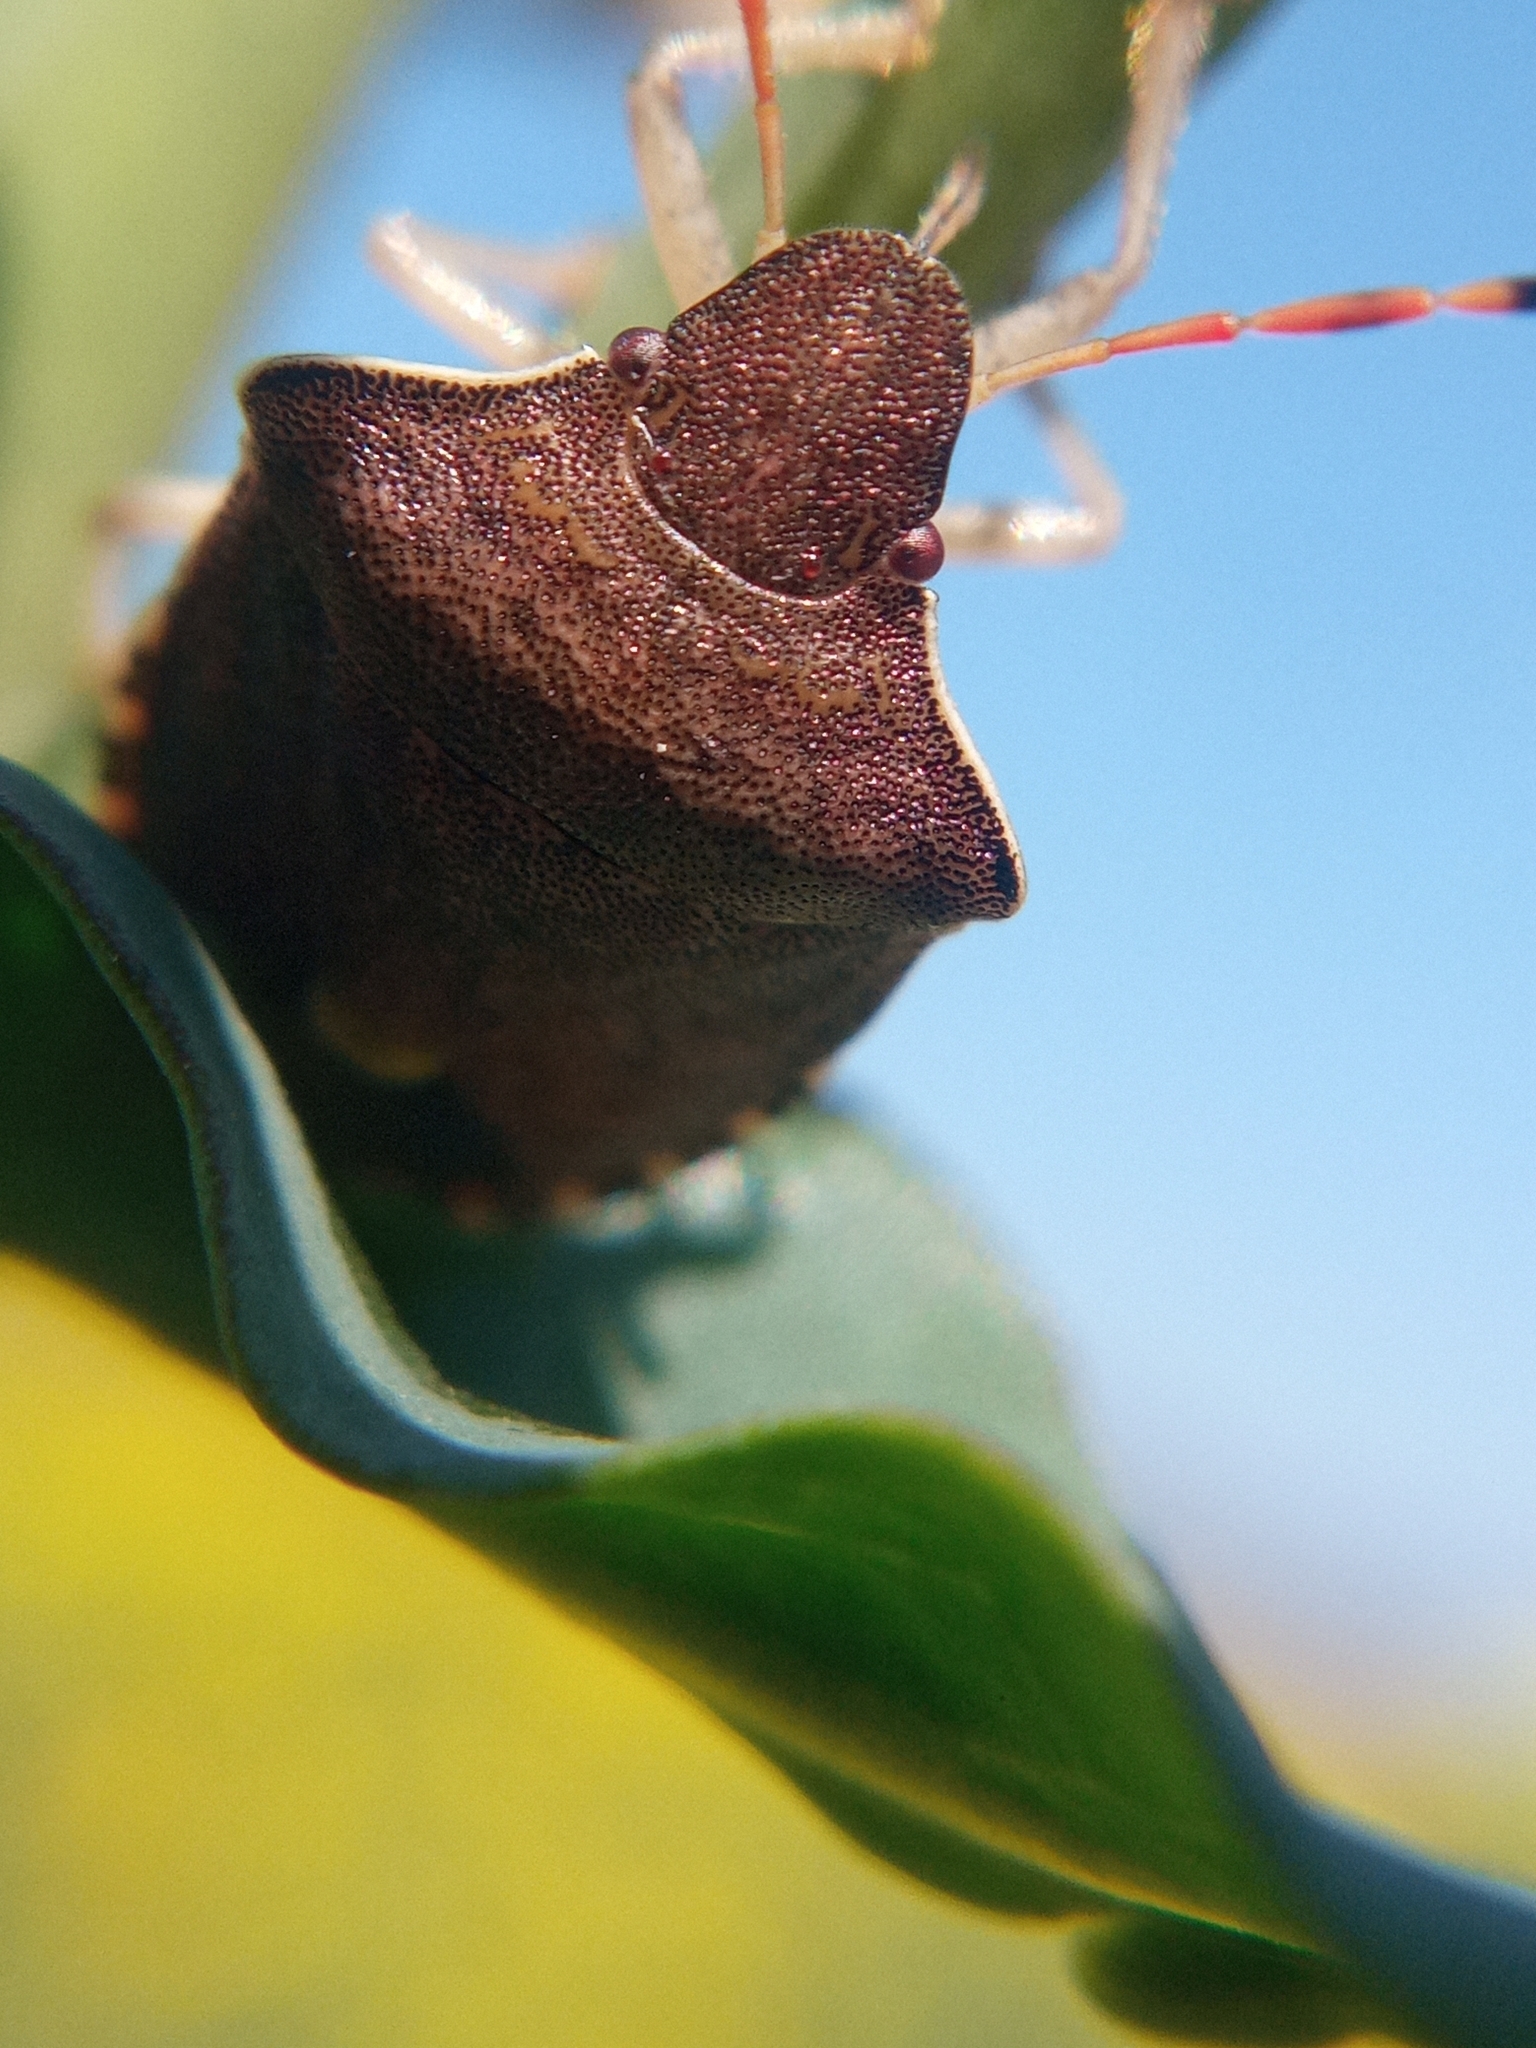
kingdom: Animalia
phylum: Arthropoda
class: Insecta
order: Hemiptera
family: Pentatomidae
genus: Holcostethus
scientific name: Holcostethus strictus
